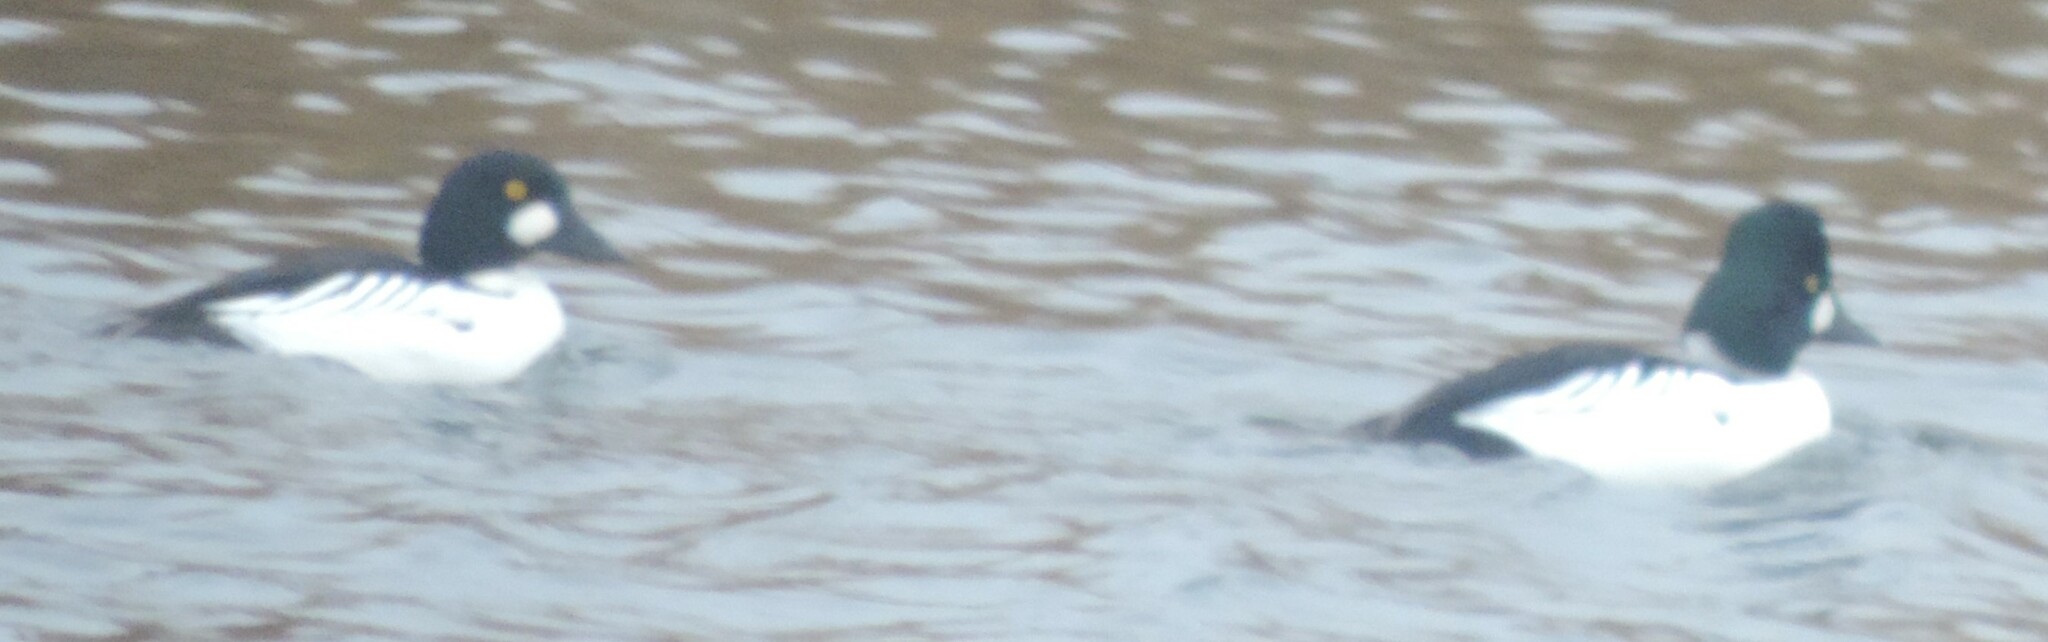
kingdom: Animalia
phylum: Chordata
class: Aves
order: Anseriformes
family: Anatidae
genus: Bucephala
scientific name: Bucephala clangula
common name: Common goldeneye
